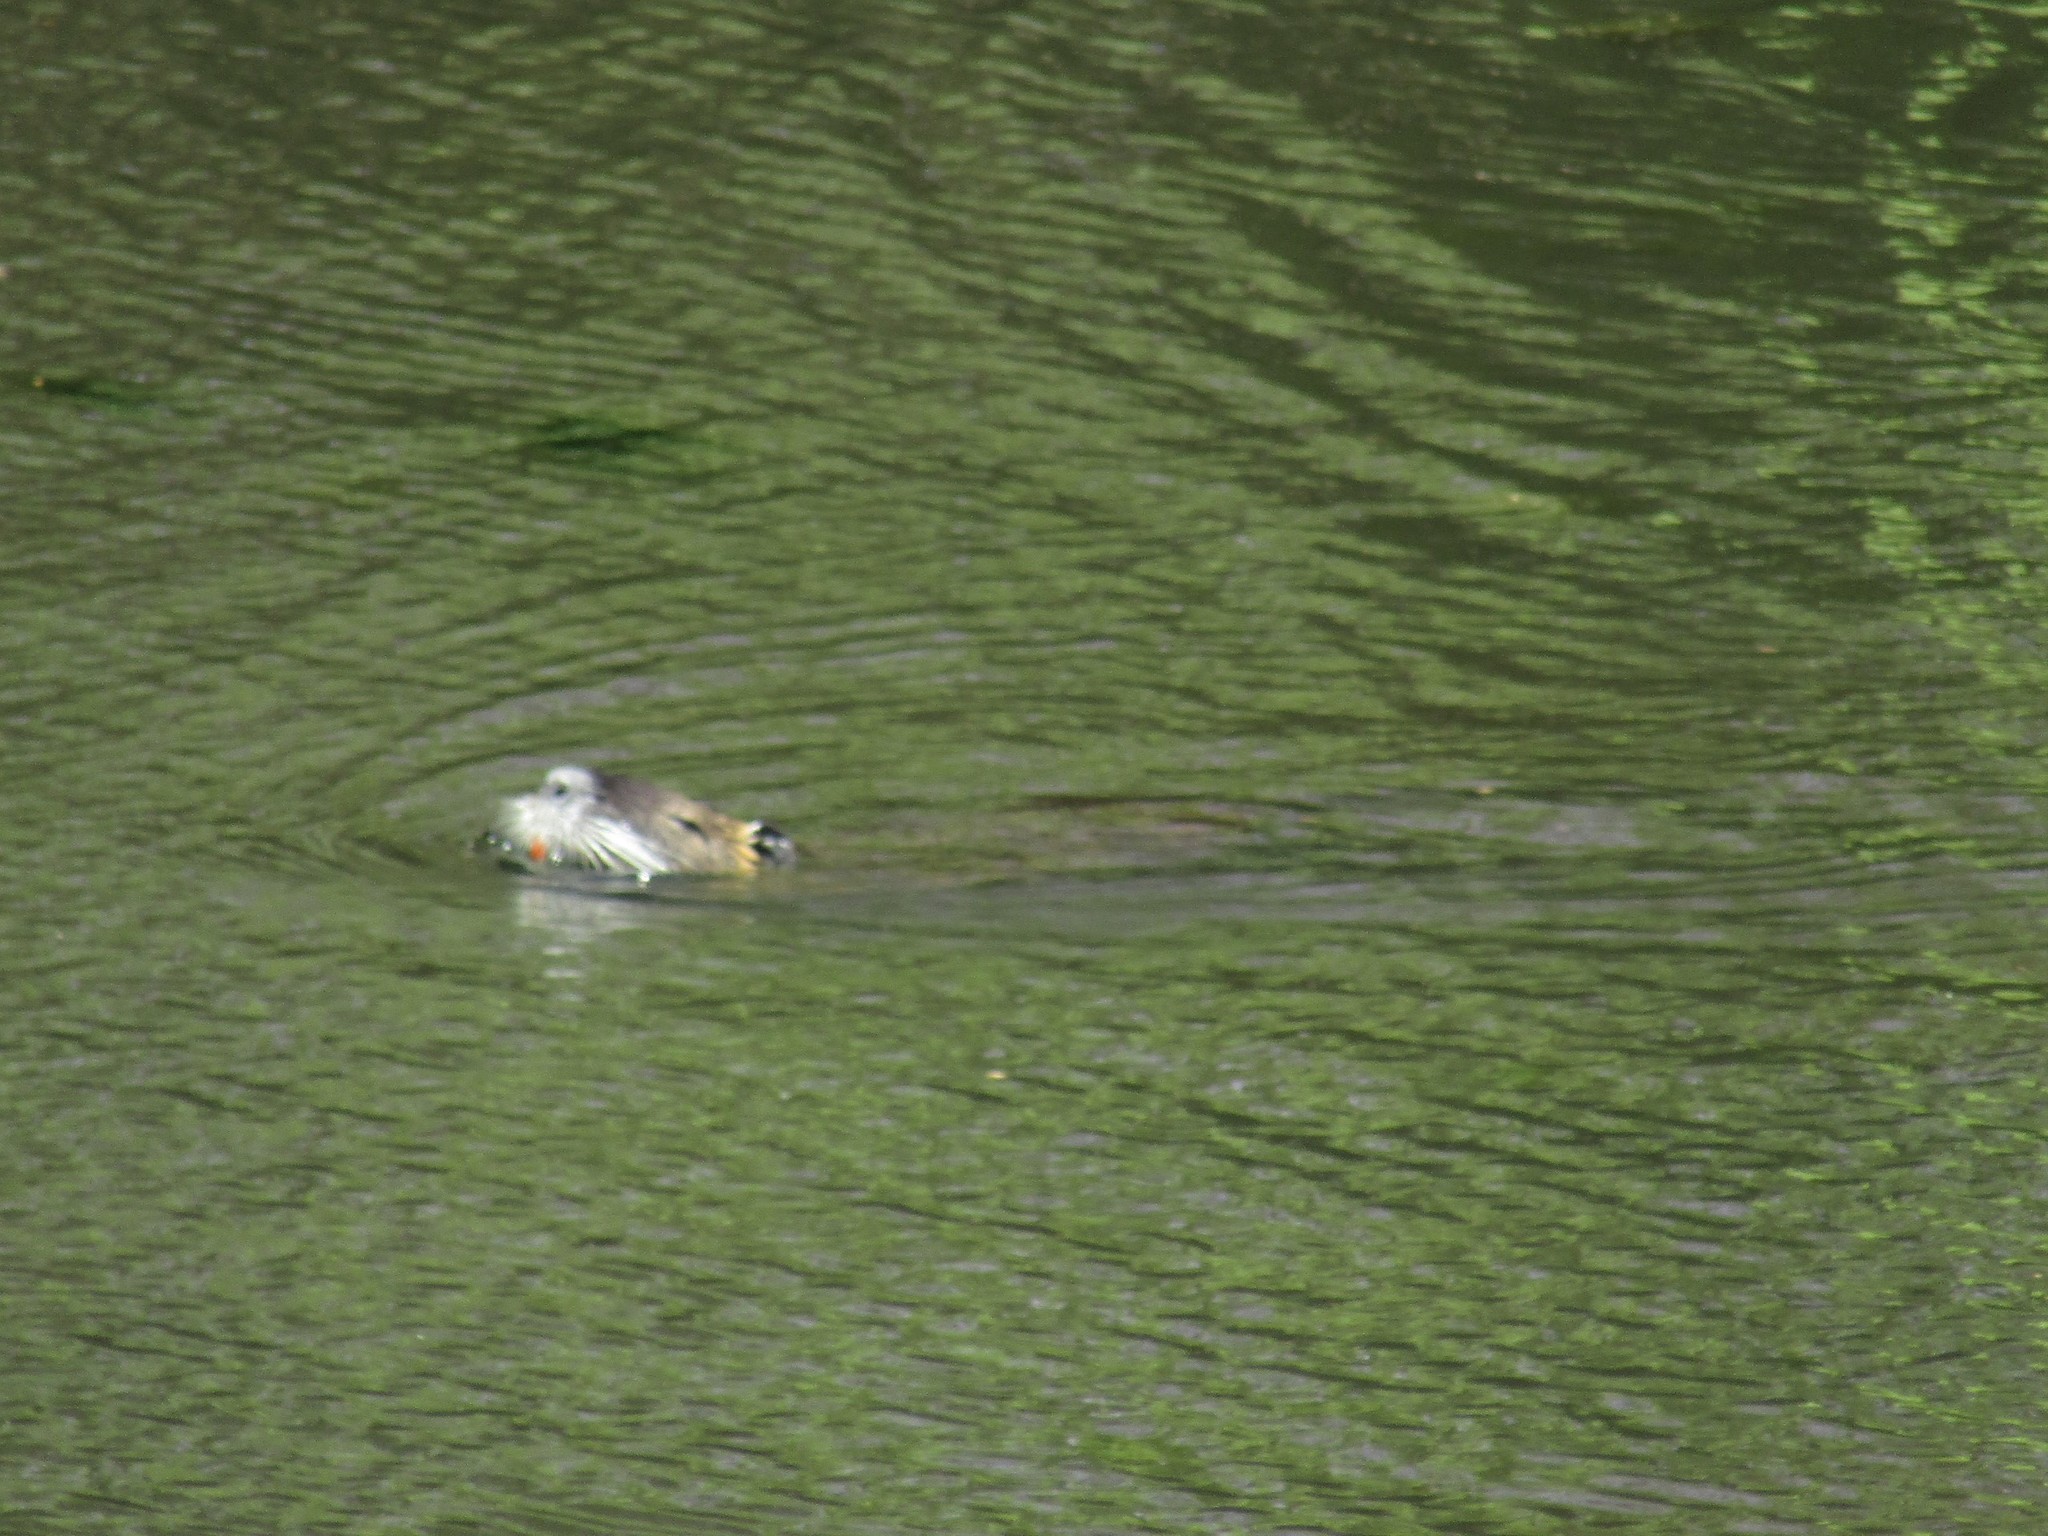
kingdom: Animalia
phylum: Chordata
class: Mammalia
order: Rodentia
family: Myocastoridae
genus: Myocastor
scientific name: Myocastor coypus
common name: Coypu
